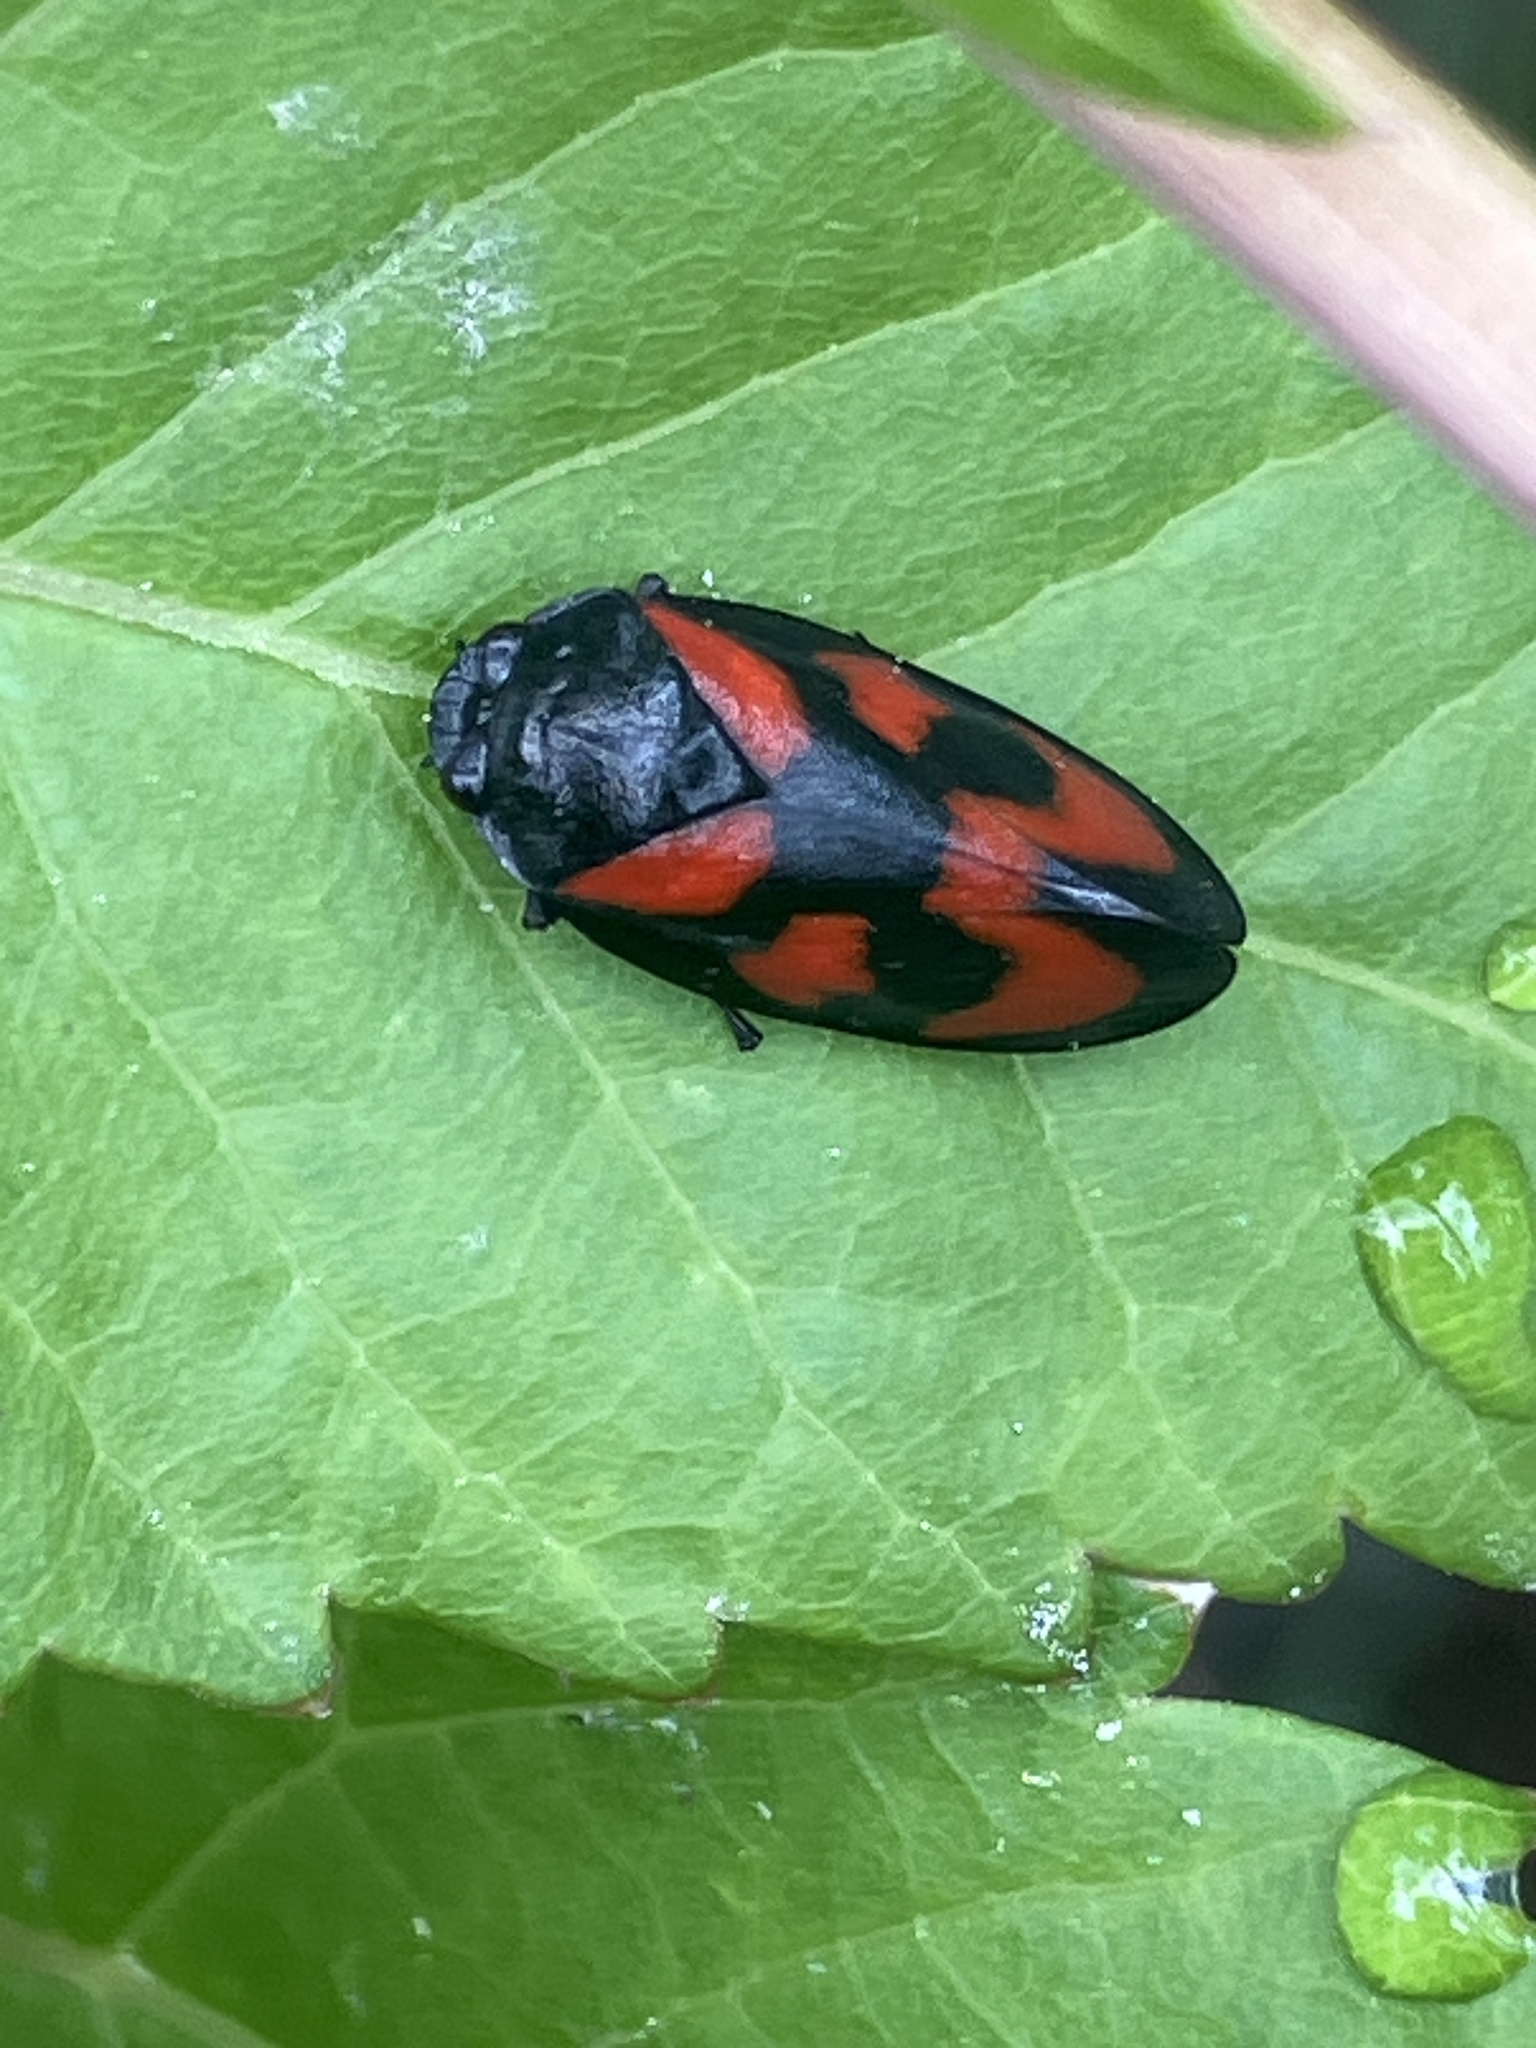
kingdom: Animalia
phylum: Arthropoda
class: Insecta
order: Hemiptera
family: Cercopidae
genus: Cercopis
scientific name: Cercopis vulnerata
